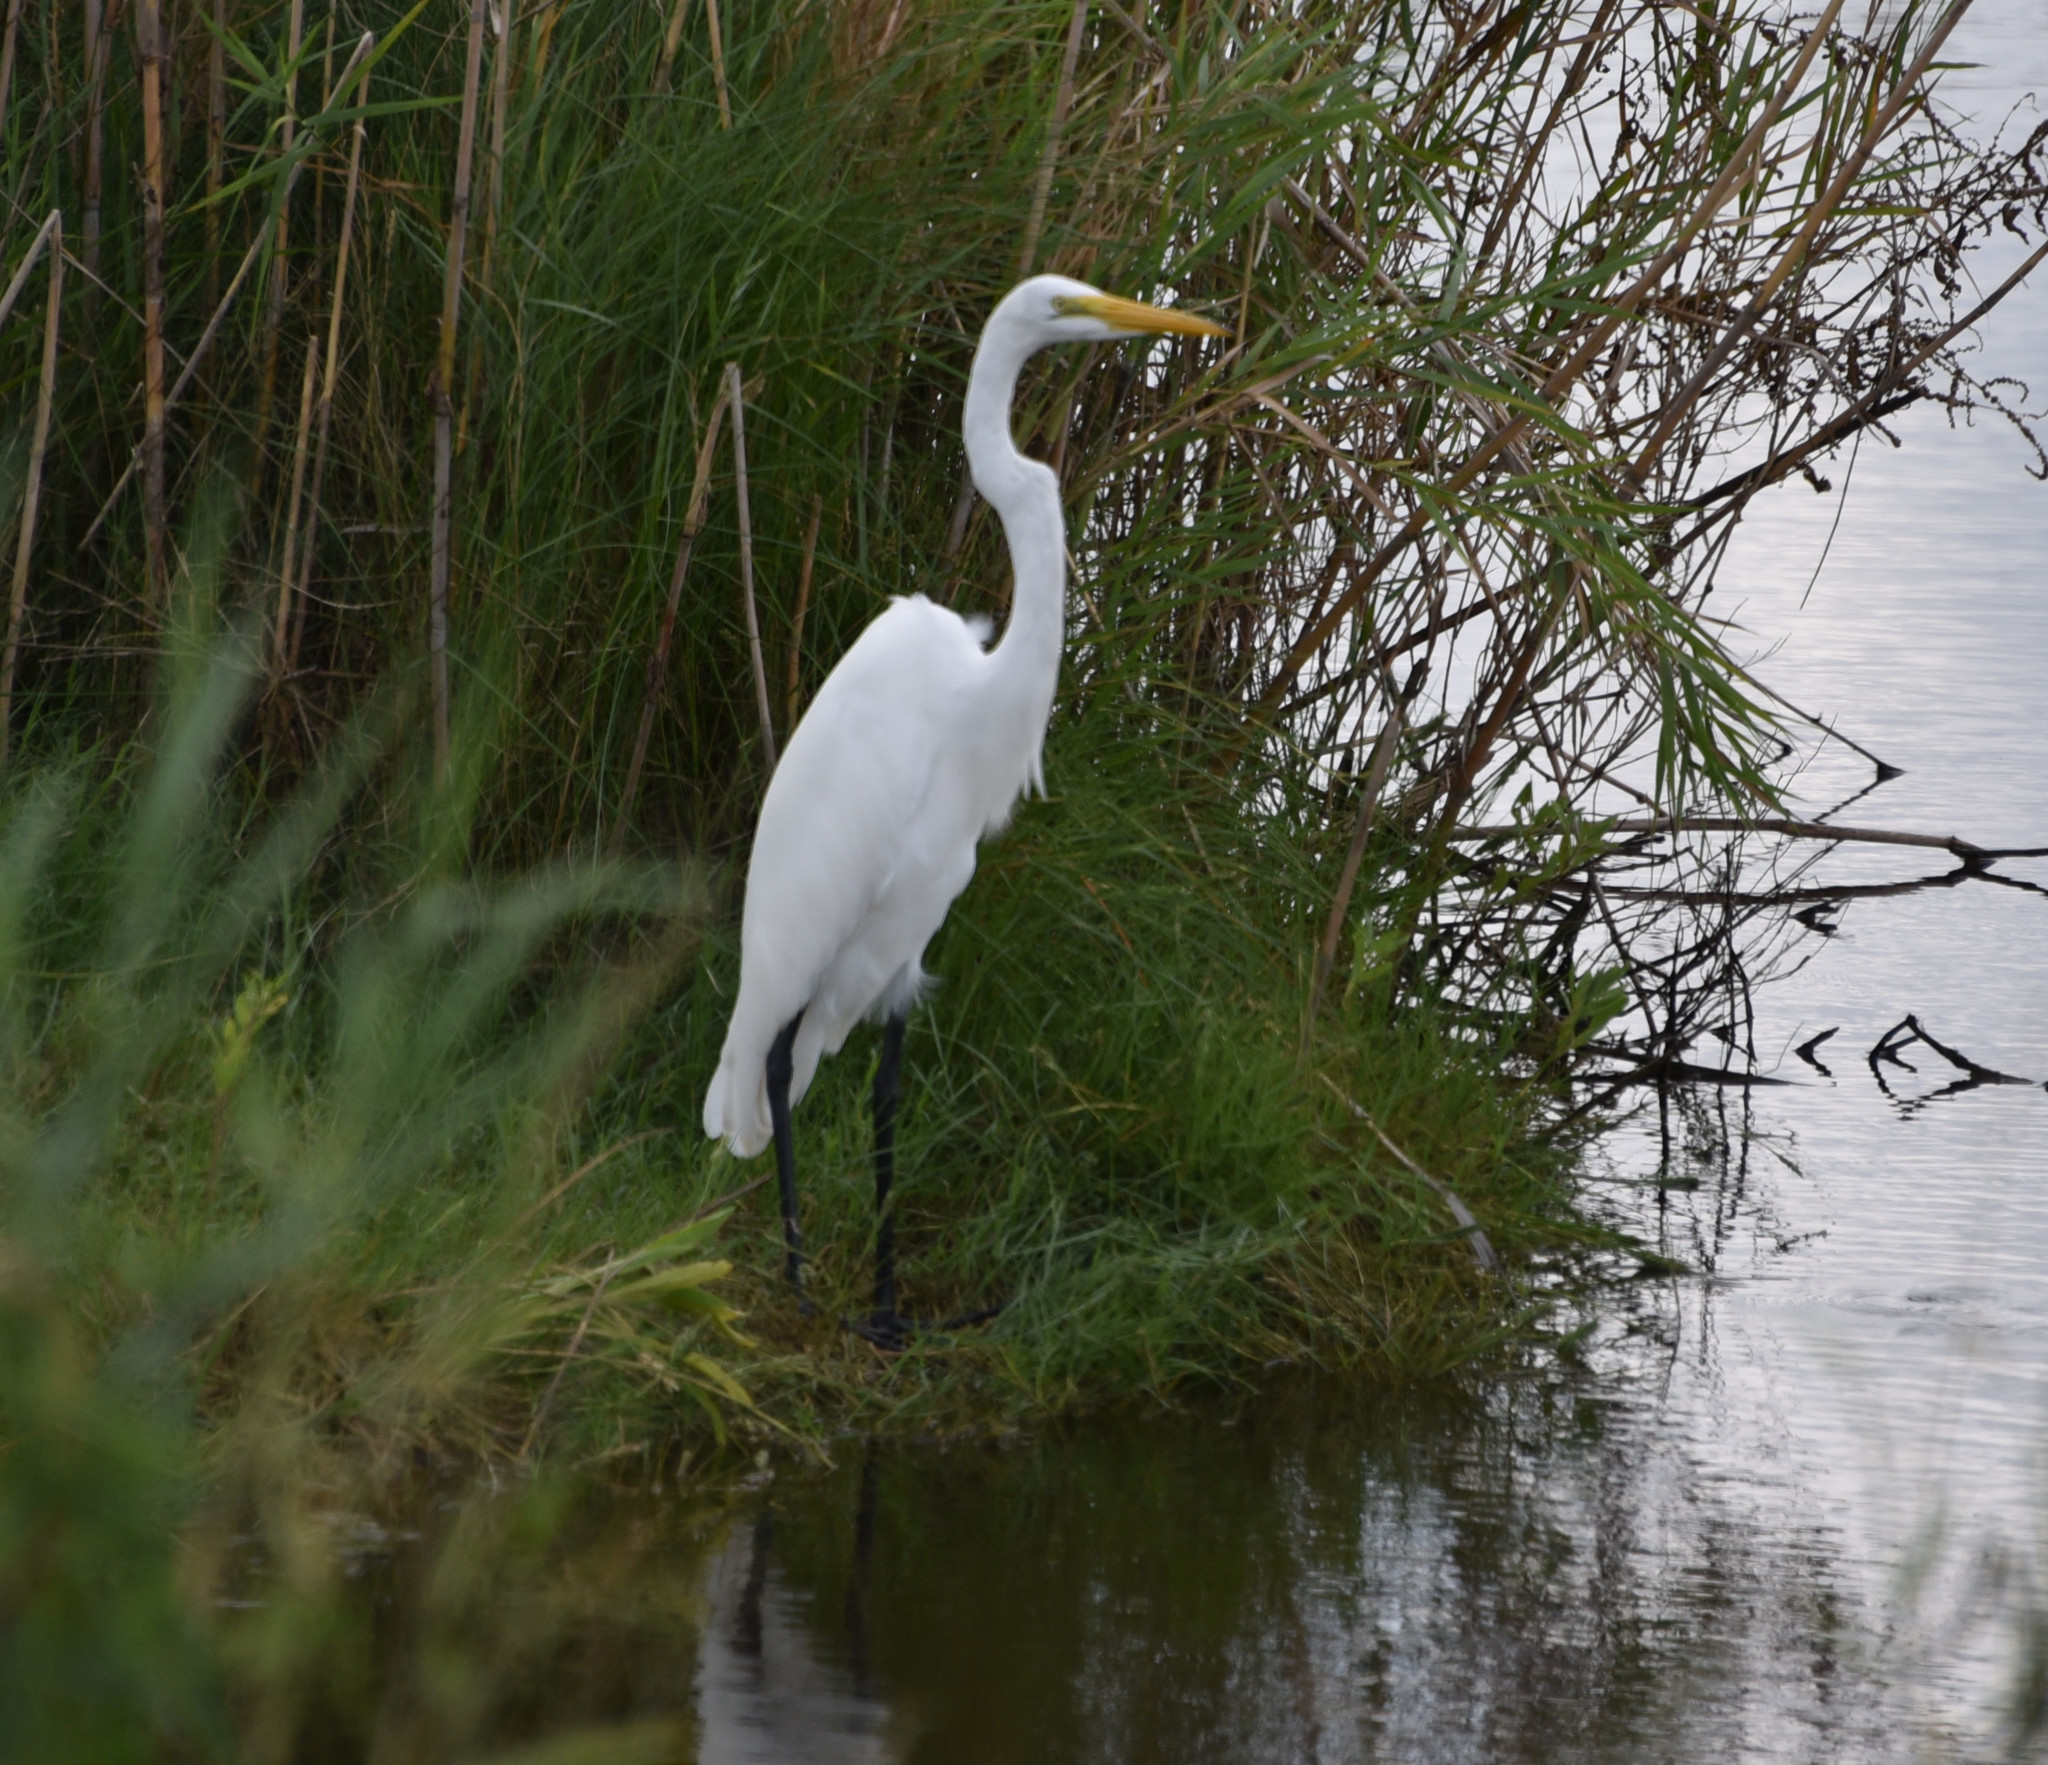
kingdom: Animalia
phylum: Chordata
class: Aves
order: Pelecaniformes
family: Ardeidae
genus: Ardea
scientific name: Ardea alba
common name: Great egret
